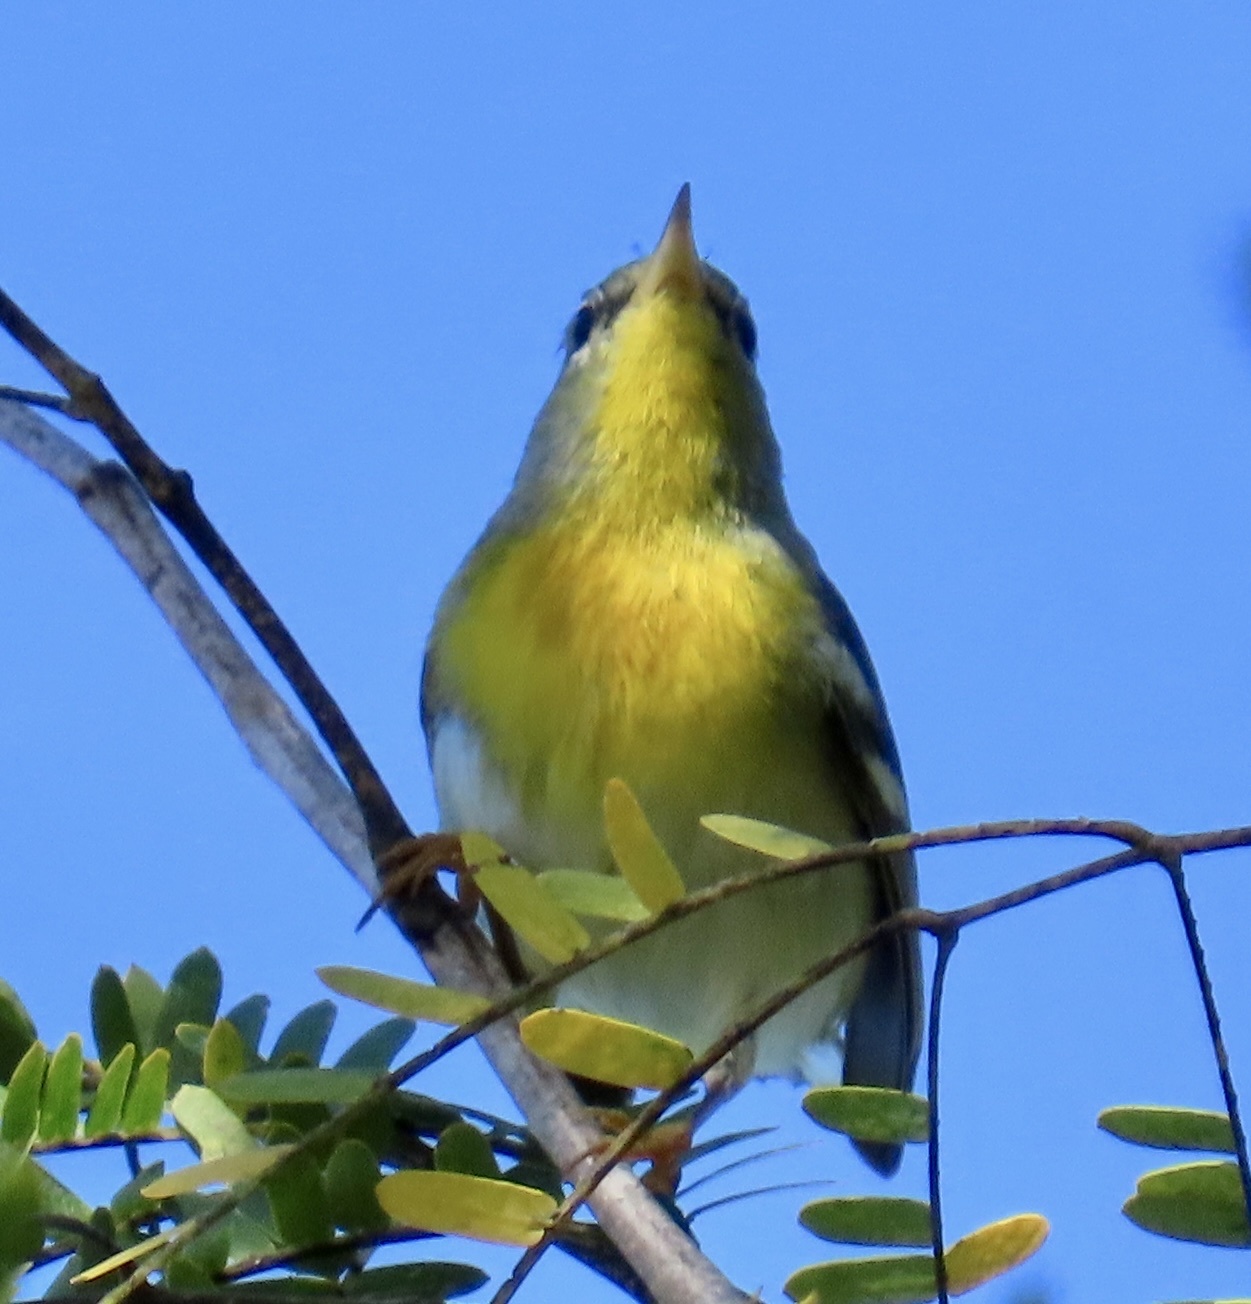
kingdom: Animalia
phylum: Chordata
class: Aves
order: Passeriformes
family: Parulidae
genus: Setophaga
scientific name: Setophaga americana
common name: Northern parula
